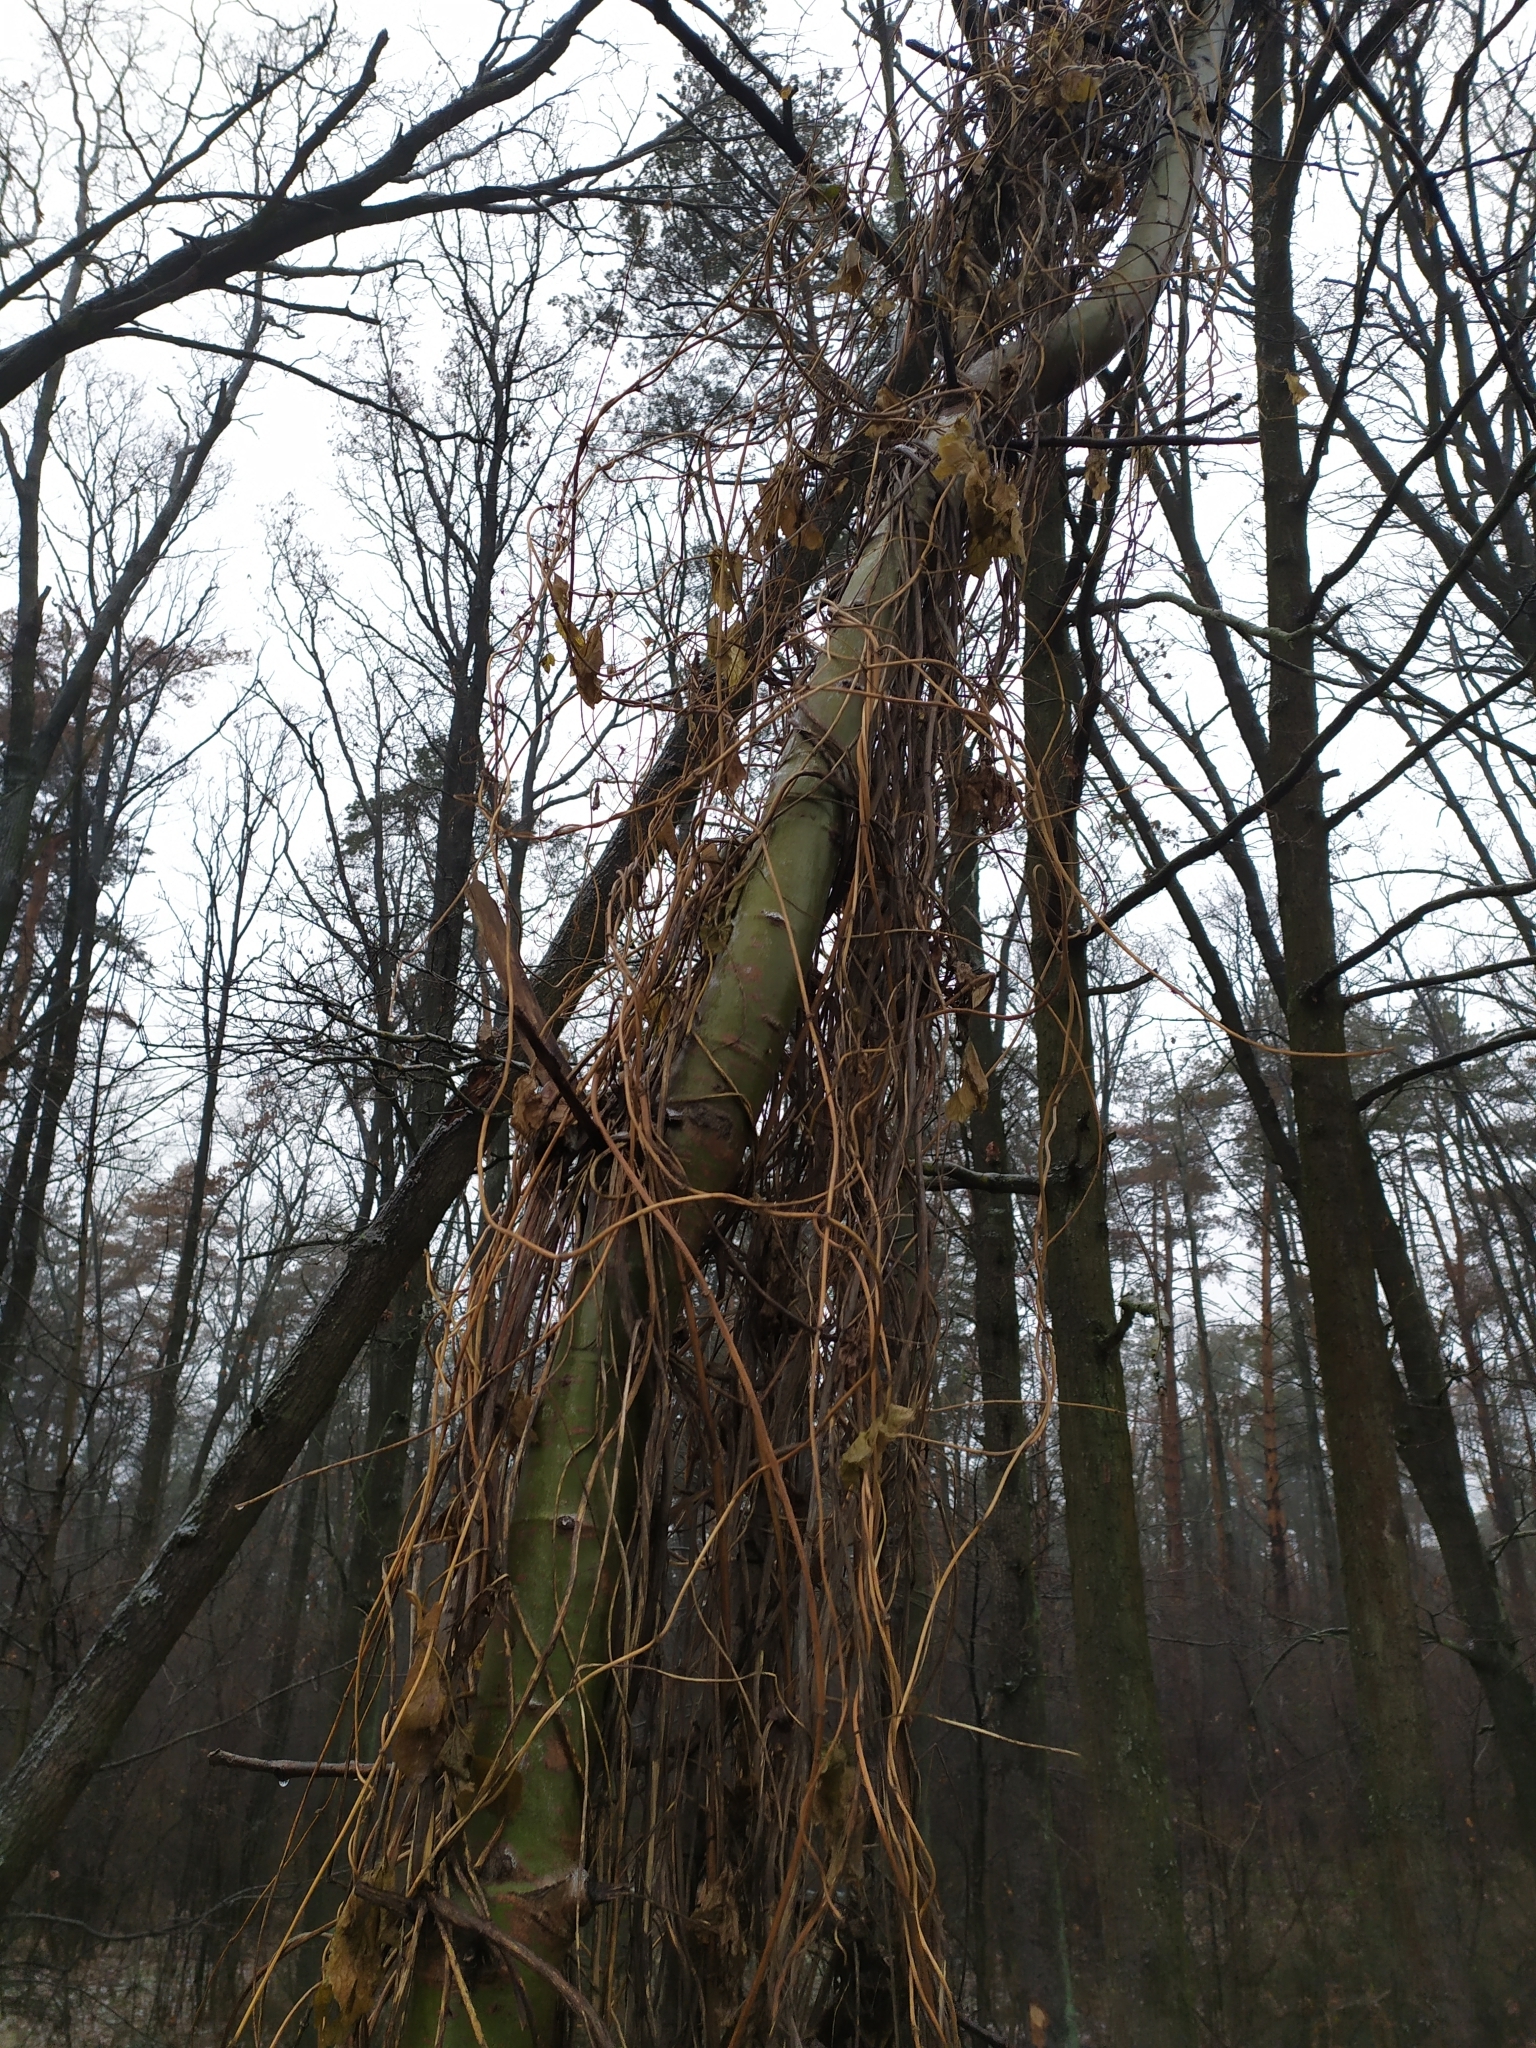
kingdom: Plantae
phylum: Tracheophyta
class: Magnoliopsida
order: Vitales
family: Vitaceae
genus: Parthenocissus
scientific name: Parthenocissus inserta
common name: False virginia-creeper
